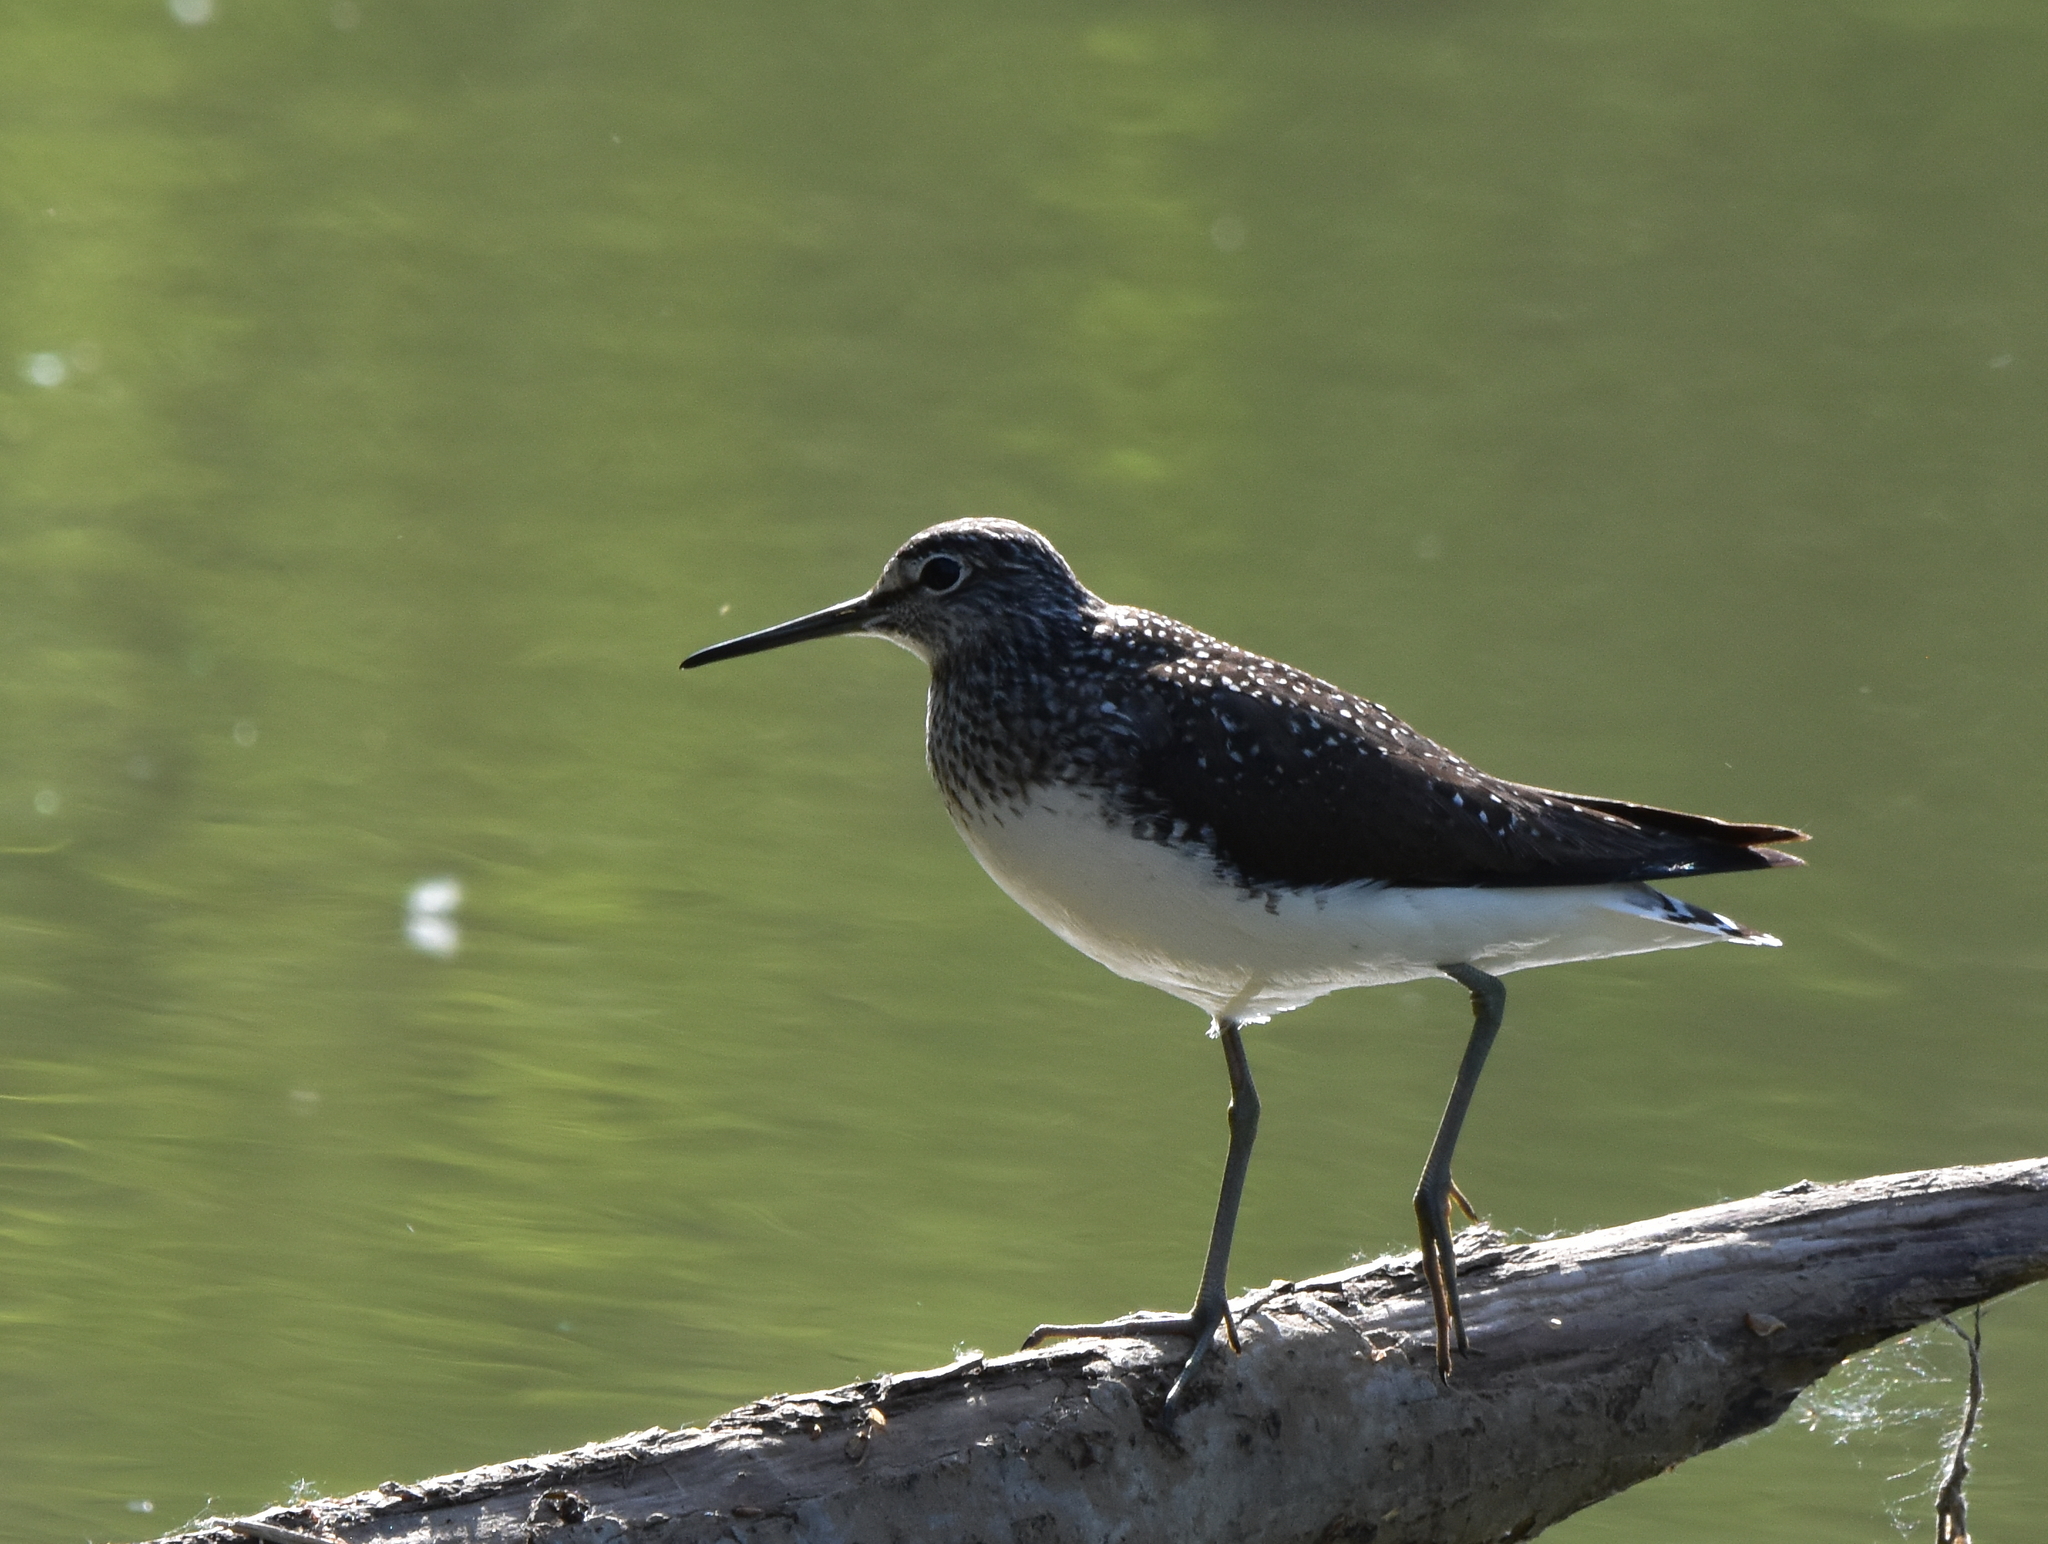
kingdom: Animalia
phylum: Chordata
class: Aves
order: Charadriiformes
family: Scolopacidae
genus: Tringa
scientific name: Tringa ochropus
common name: Green sandpiper
